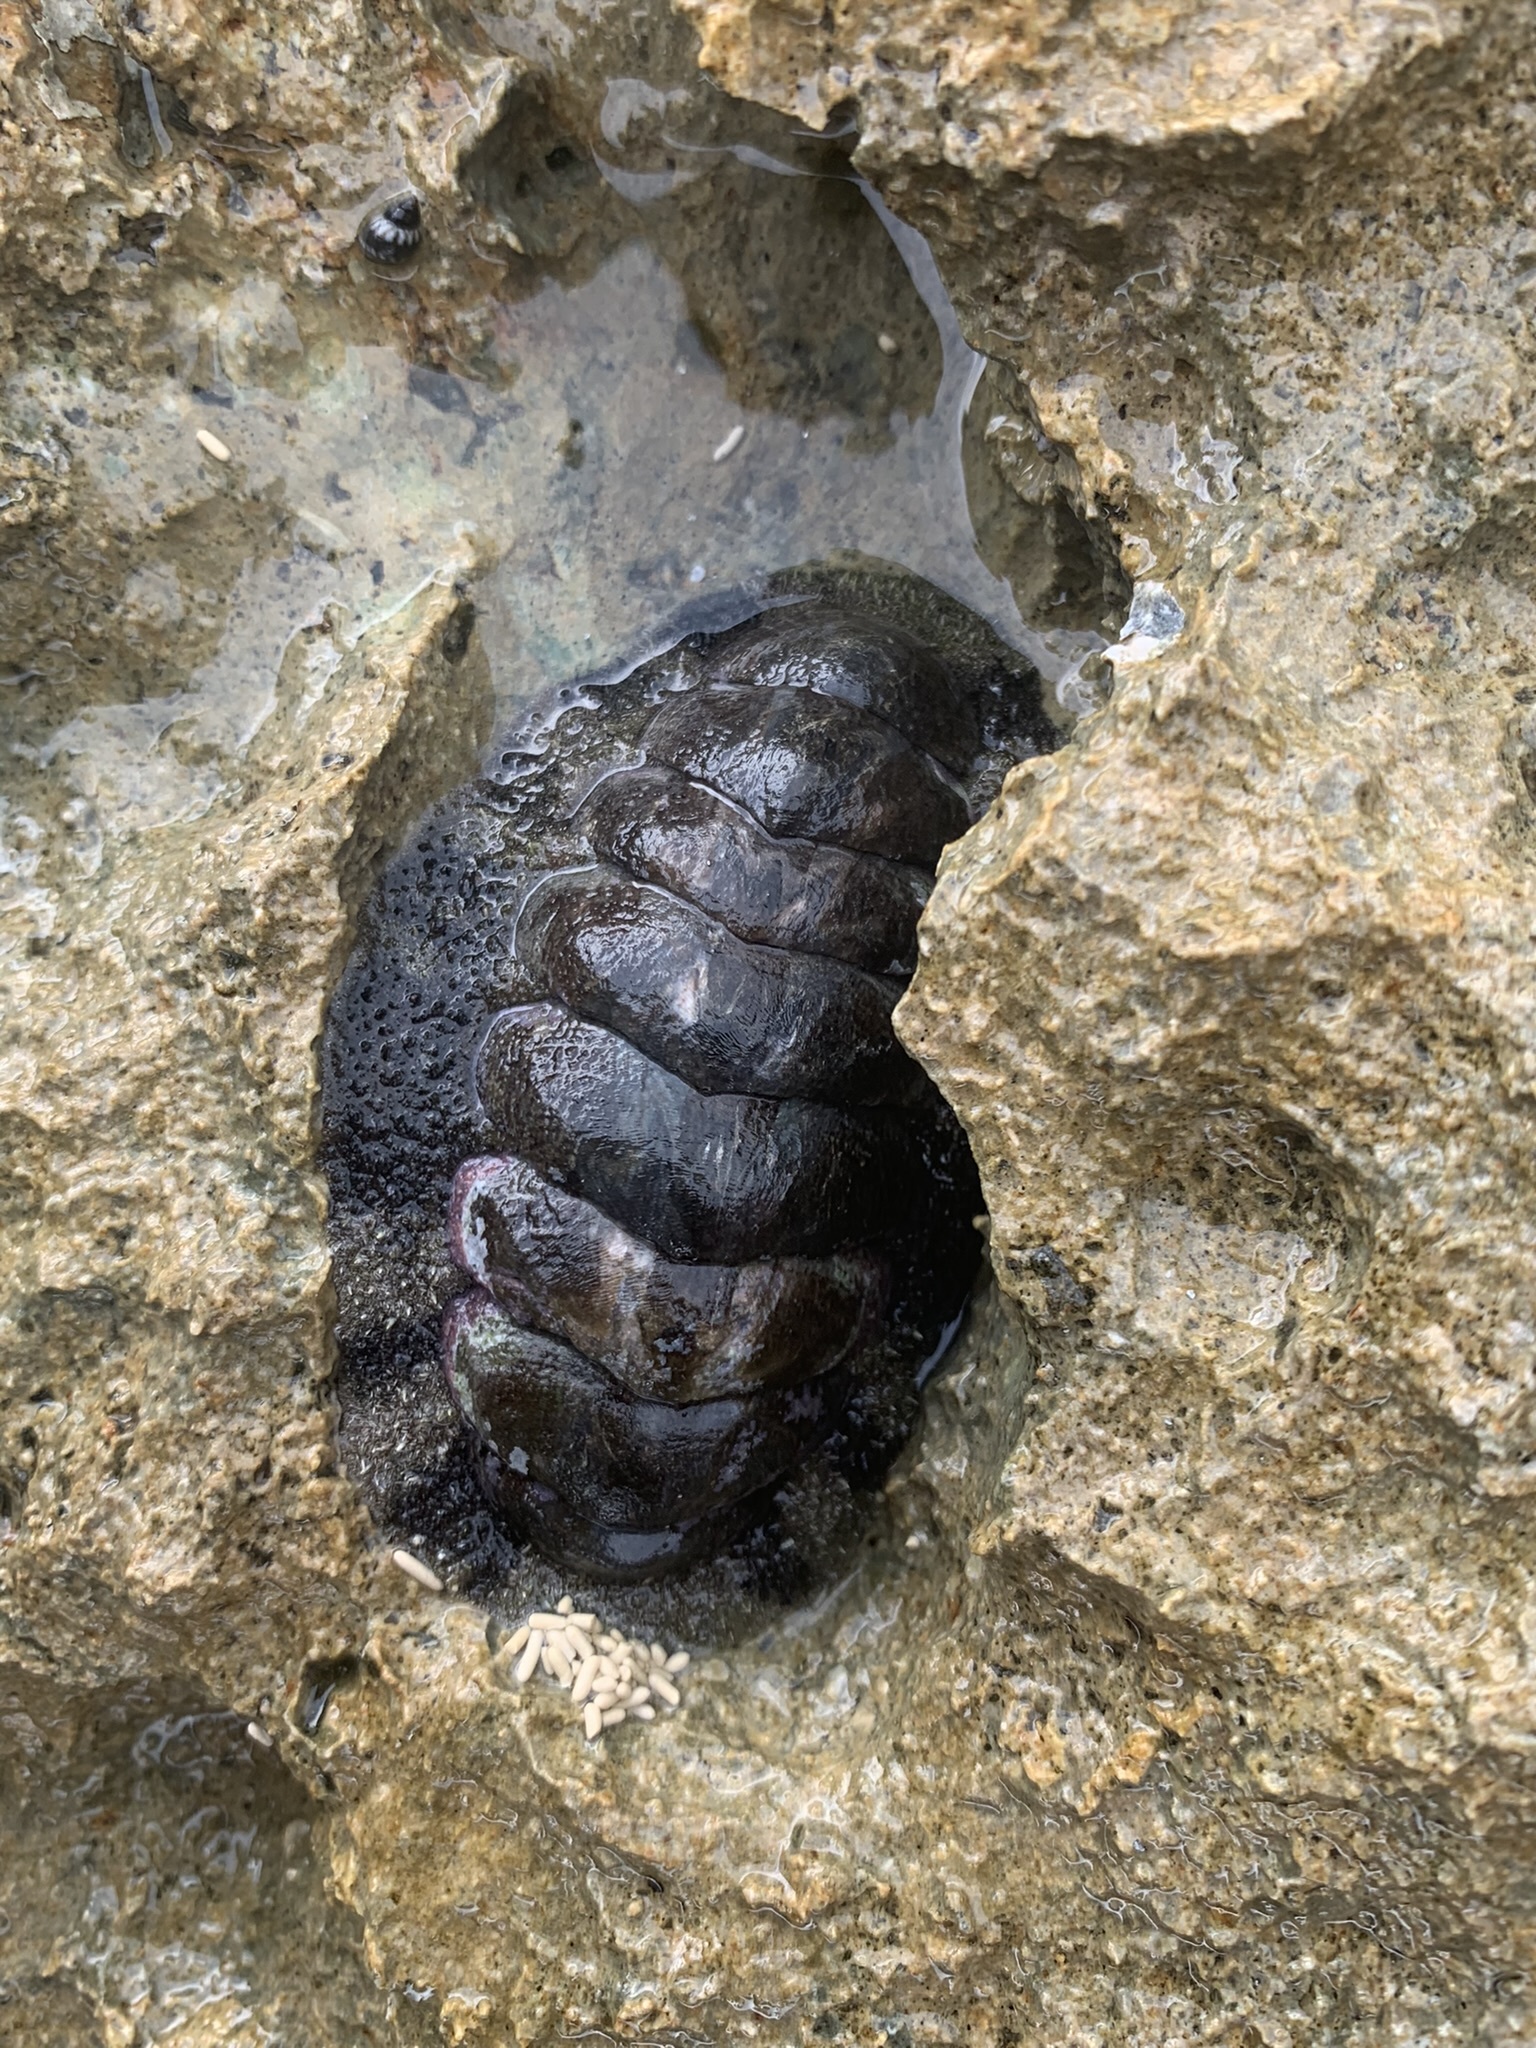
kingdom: Animalia
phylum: Mollusca
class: Polyplacophora
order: Chitonida
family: Chitonidae
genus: Acanthopleura
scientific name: Acanthopleura granulata
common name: West indian fuzzy chiton
